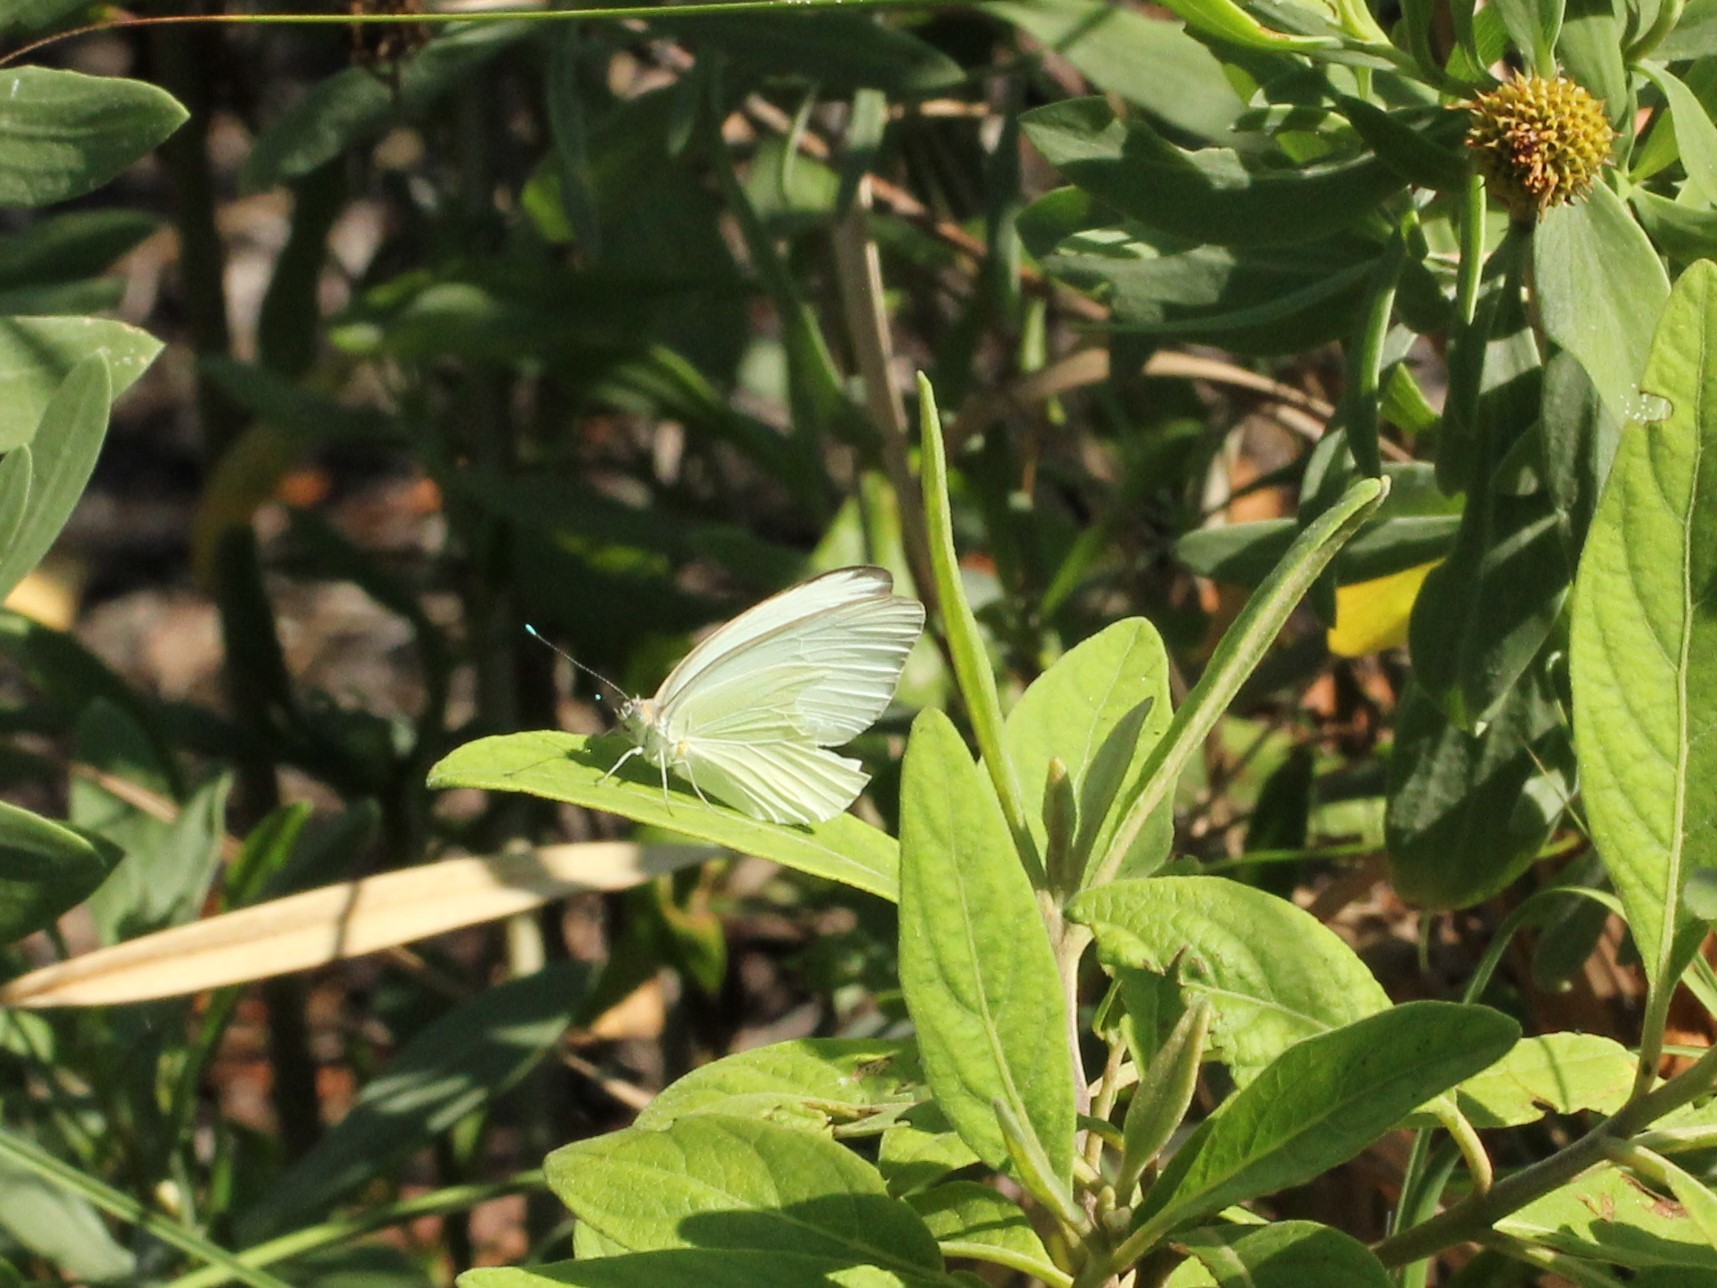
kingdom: Animalia
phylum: Arthropoda
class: Insecta
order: Lepidoptera
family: Pieridae
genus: Ascia
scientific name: Ascia monuste
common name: Great southern white
